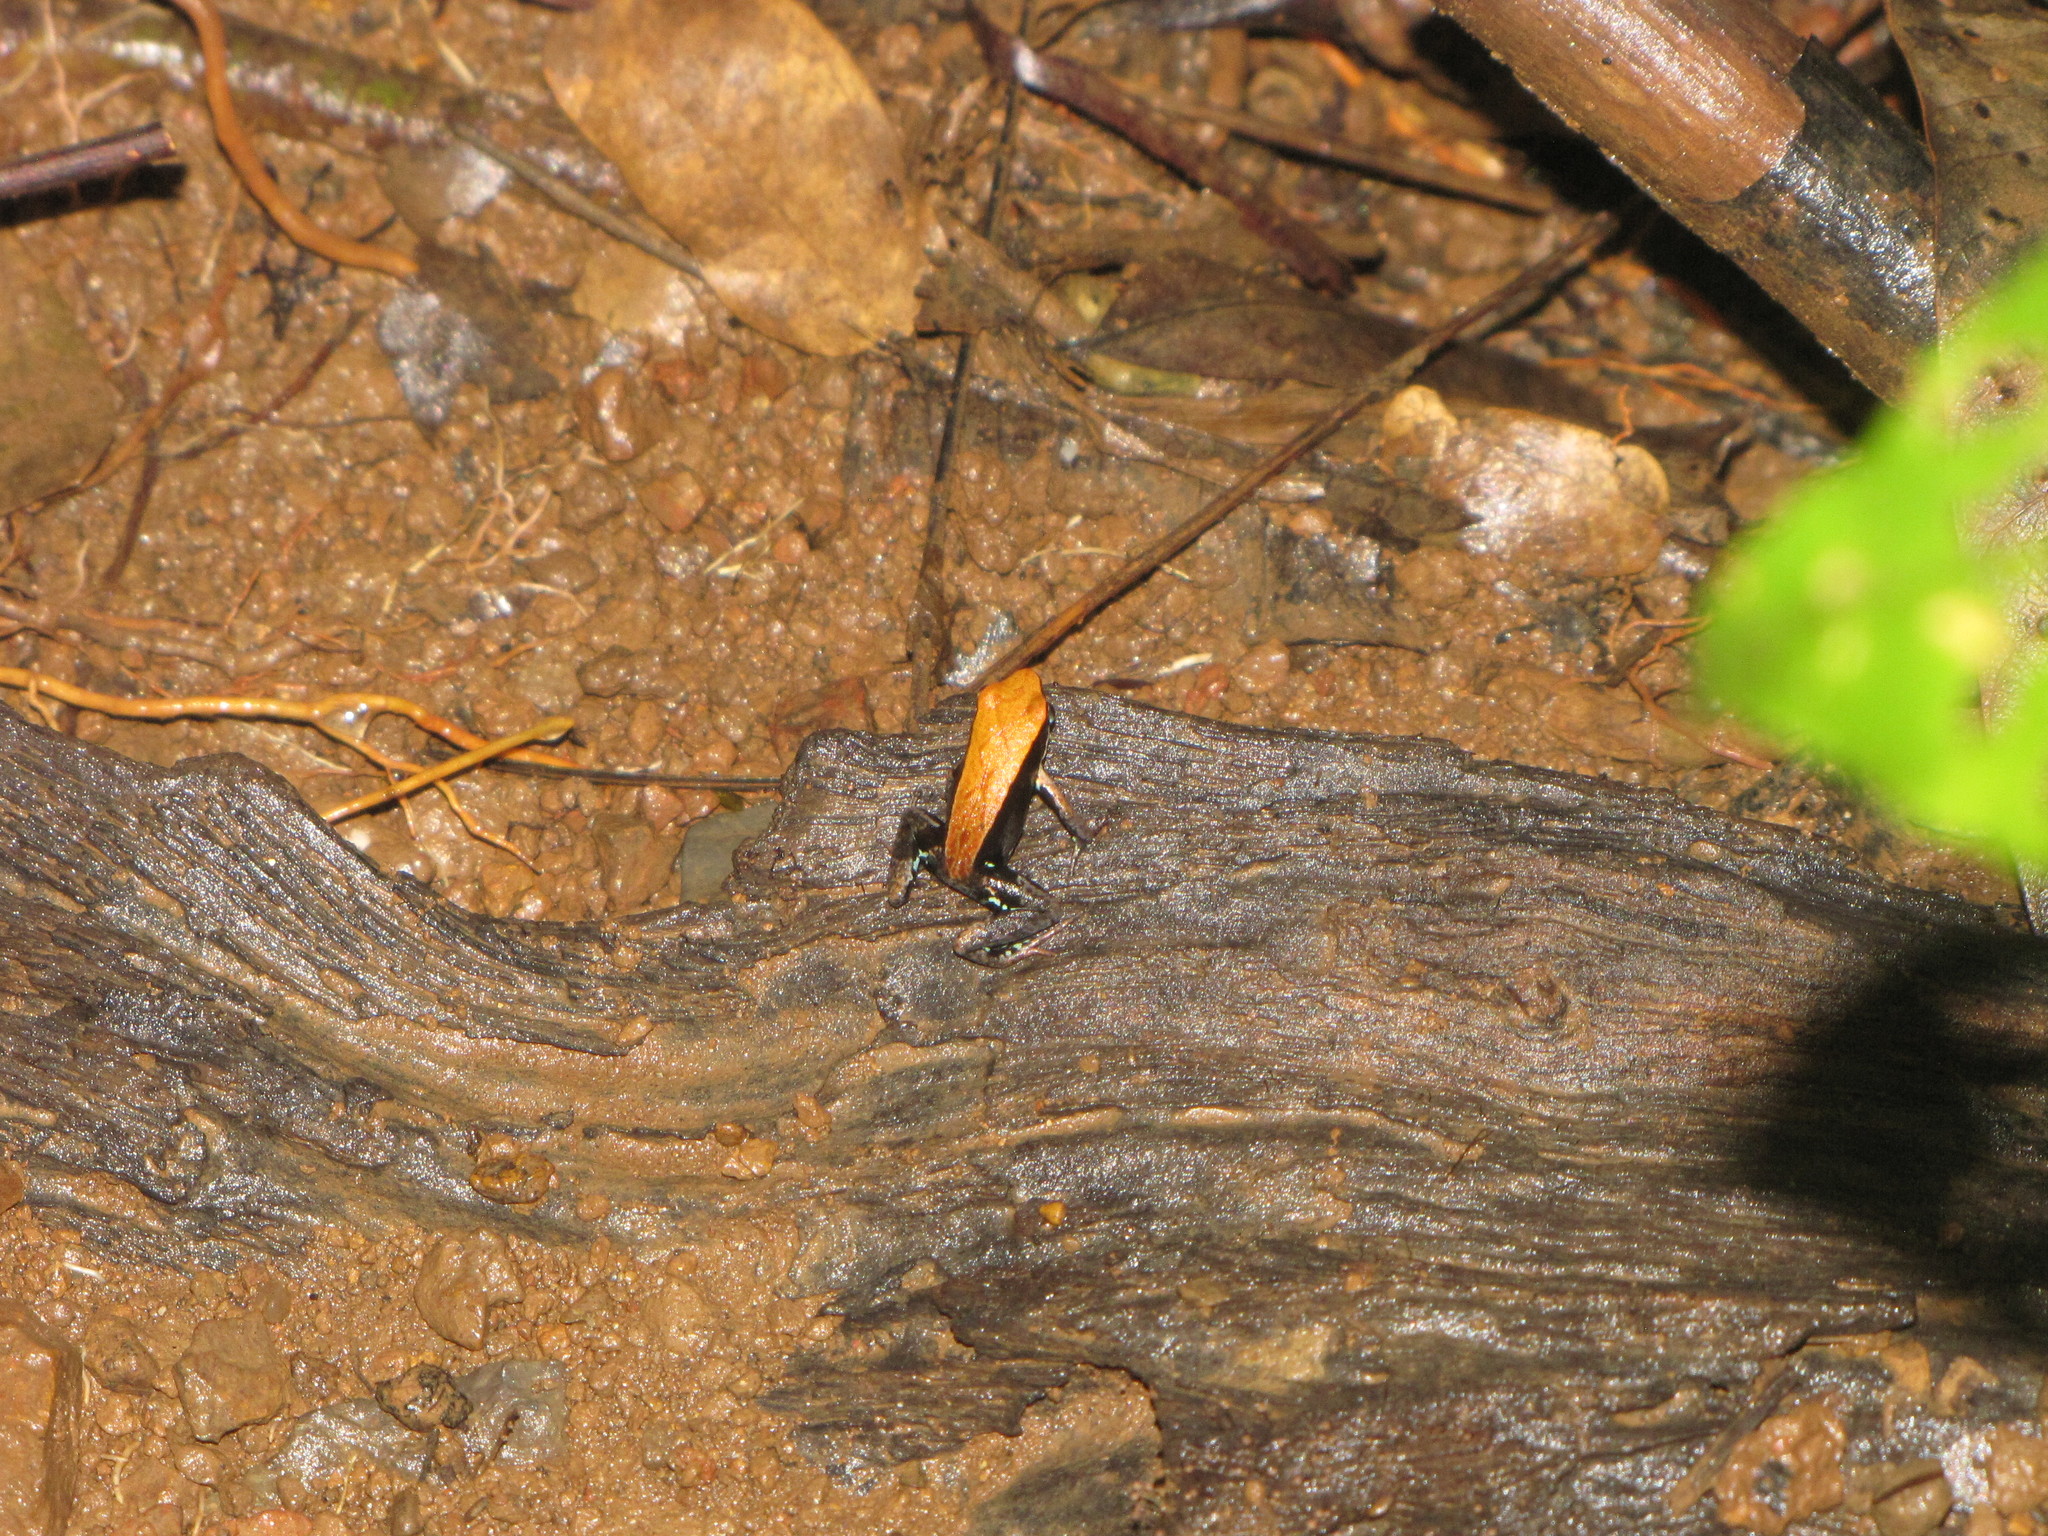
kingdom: Animalia
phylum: Chordata
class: Amphibia
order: Anura
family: Mantellidae
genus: Mantella
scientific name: Mantella ebenaui
